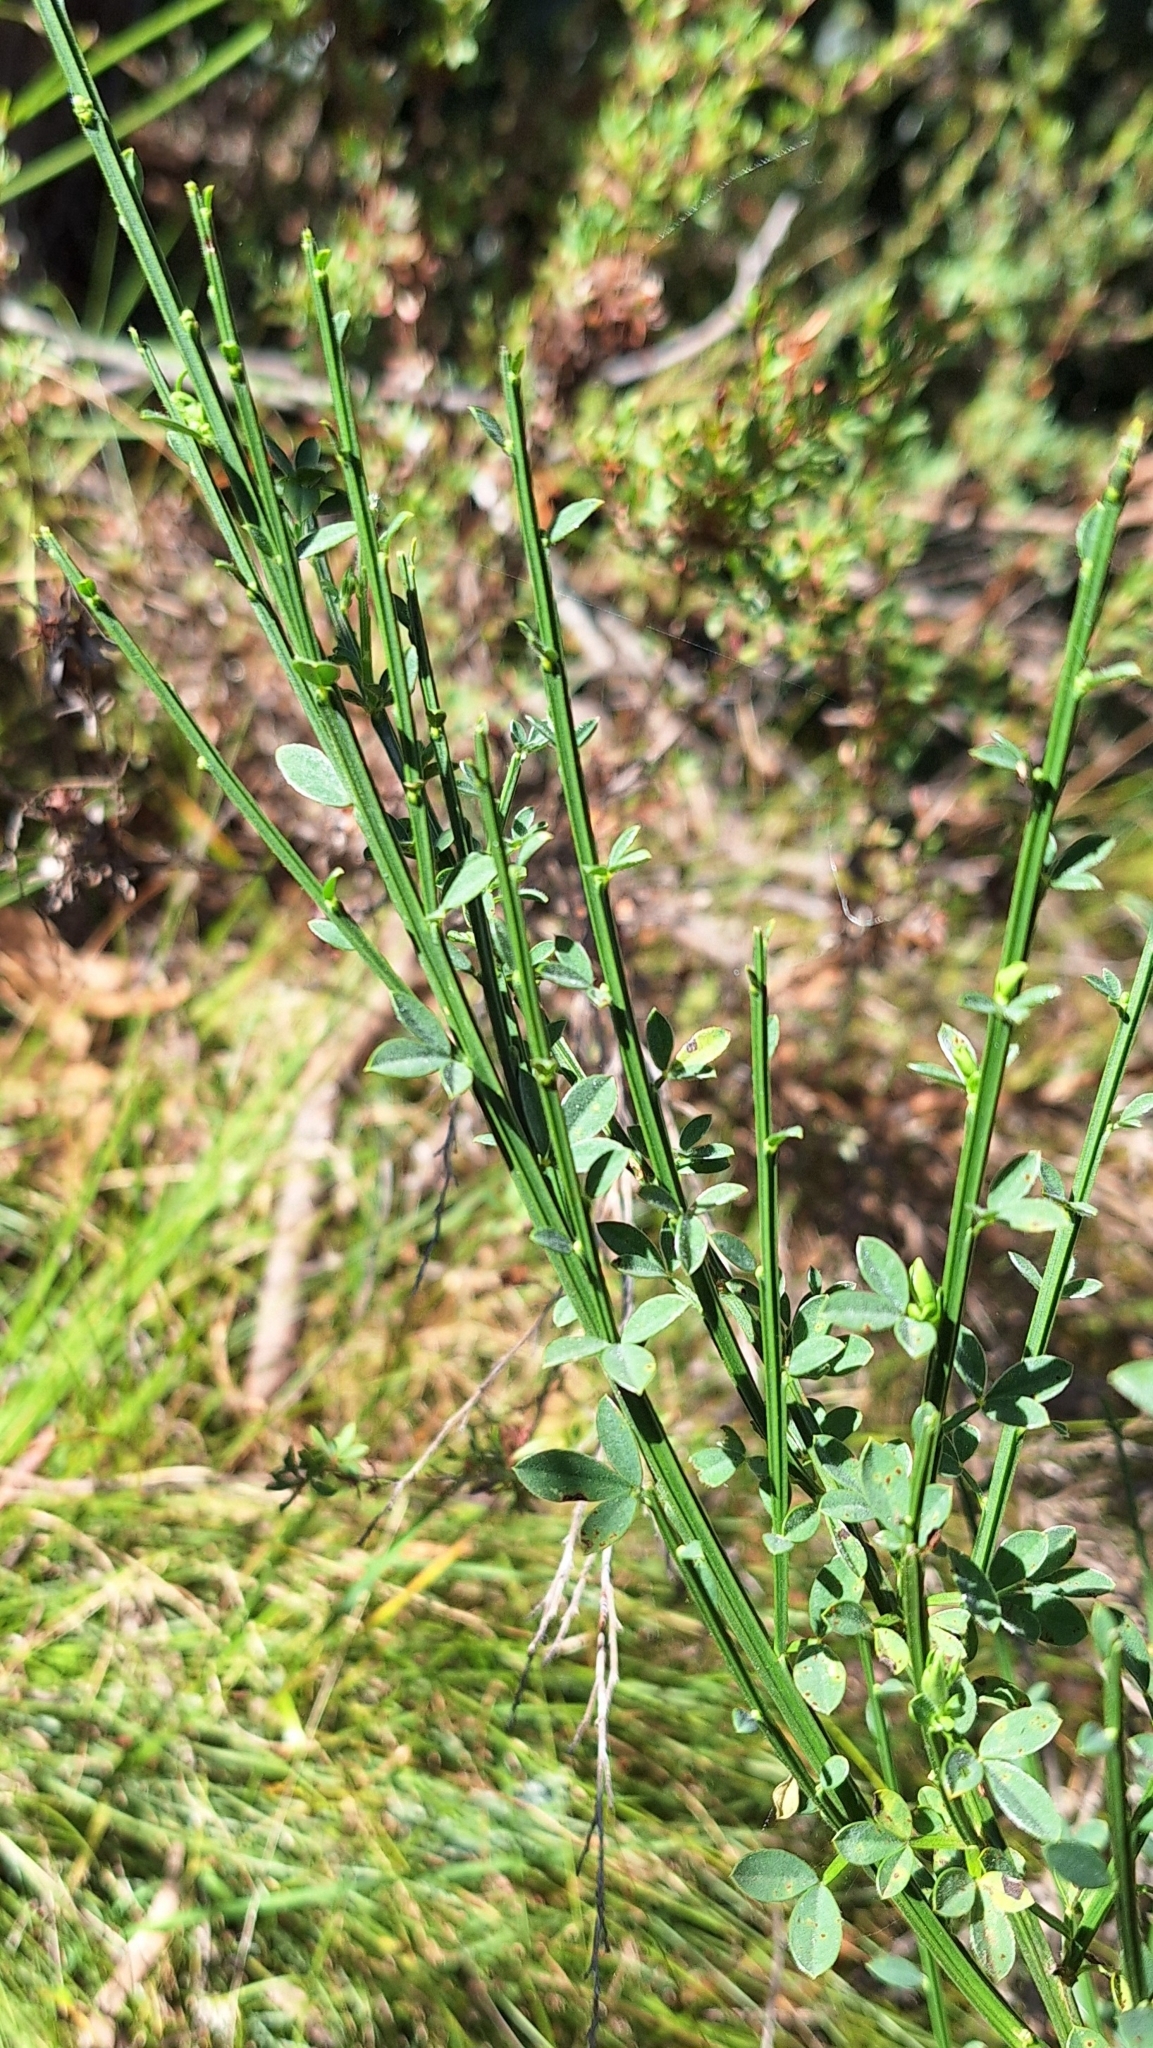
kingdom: Plantae
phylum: Tracheophyta
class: Magnoliopsida
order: Fabales
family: Fabaceae
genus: Cytisus
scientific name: Cytisus scoparius
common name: Scotch broom
